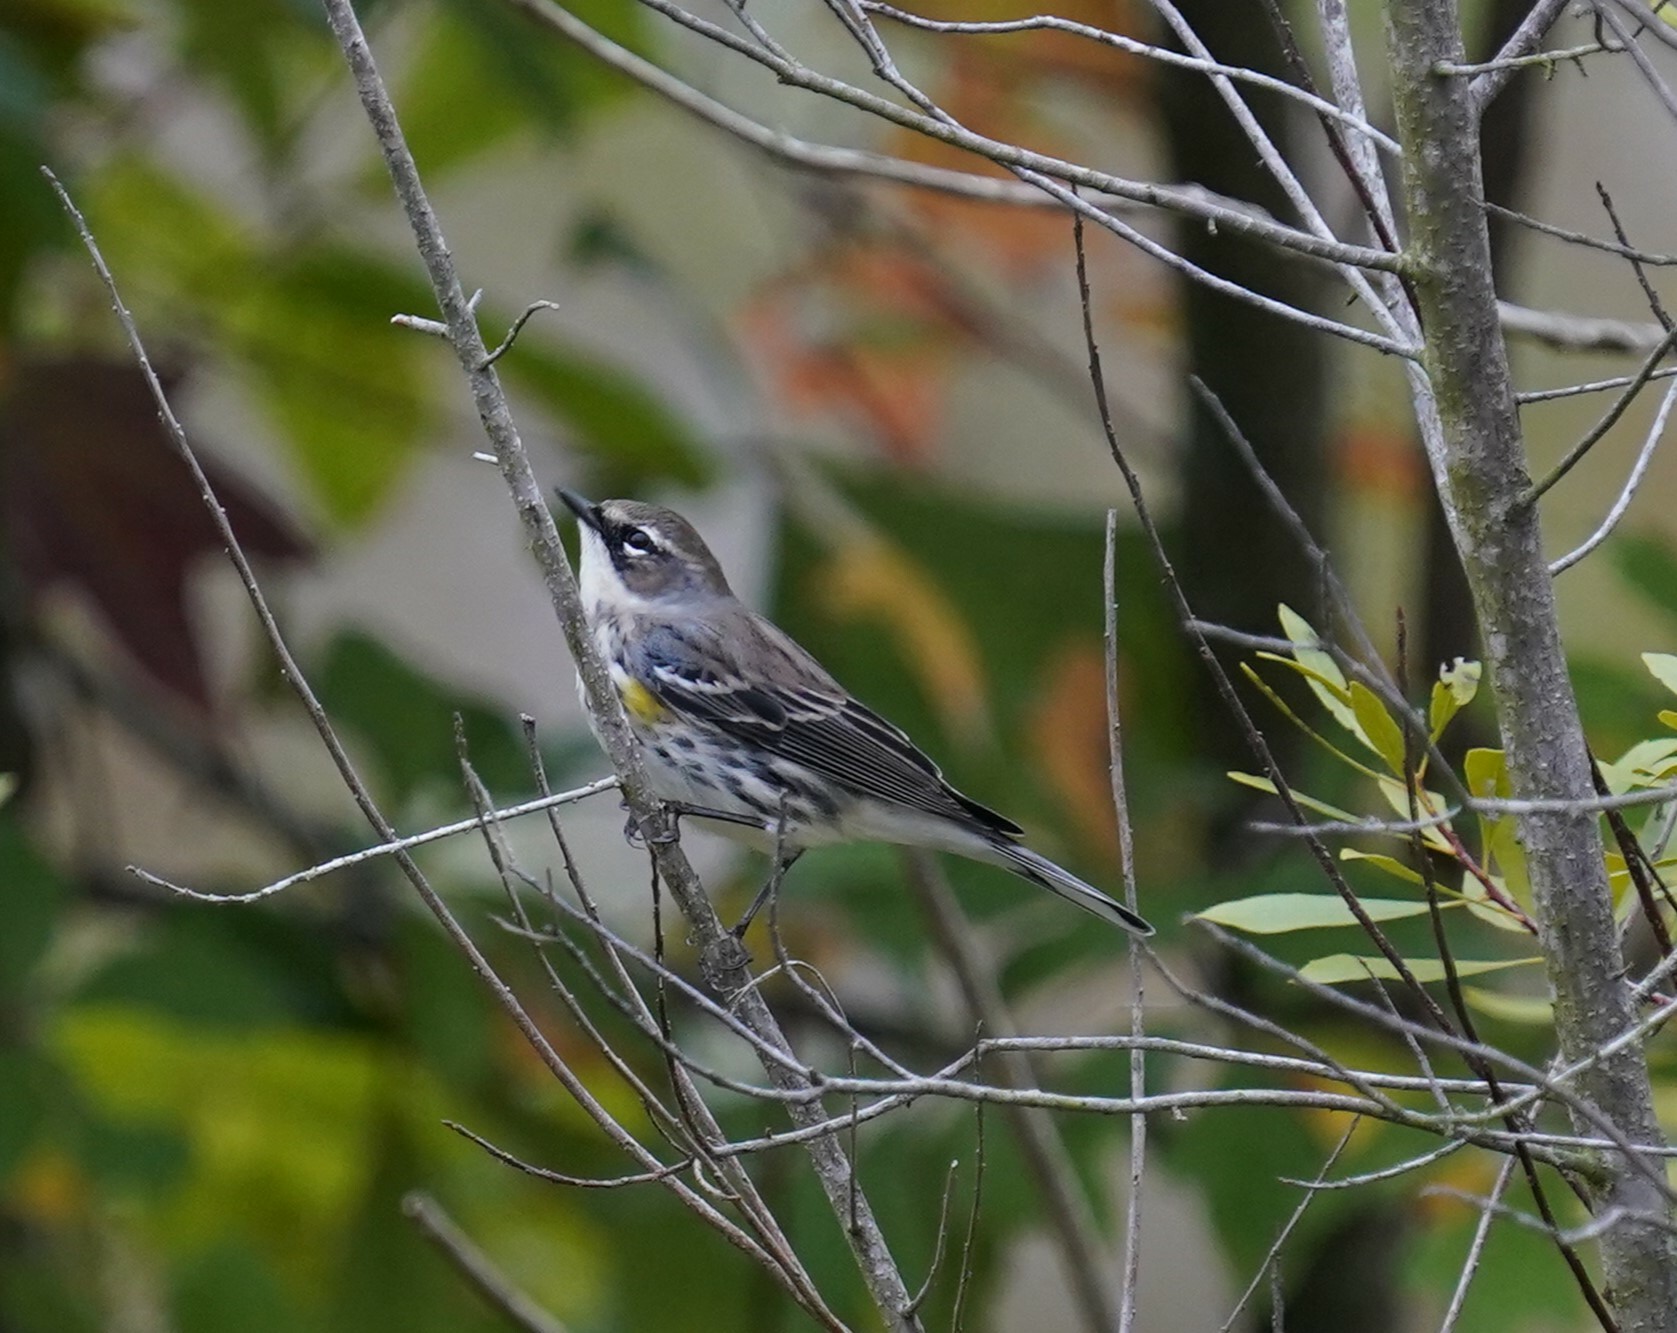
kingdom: Animalia
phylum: Chordata
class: Aves
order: Passeriformes
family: Parulidae
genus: Setophaga
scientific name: Setophaga coronata
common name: Myrtle warbler
